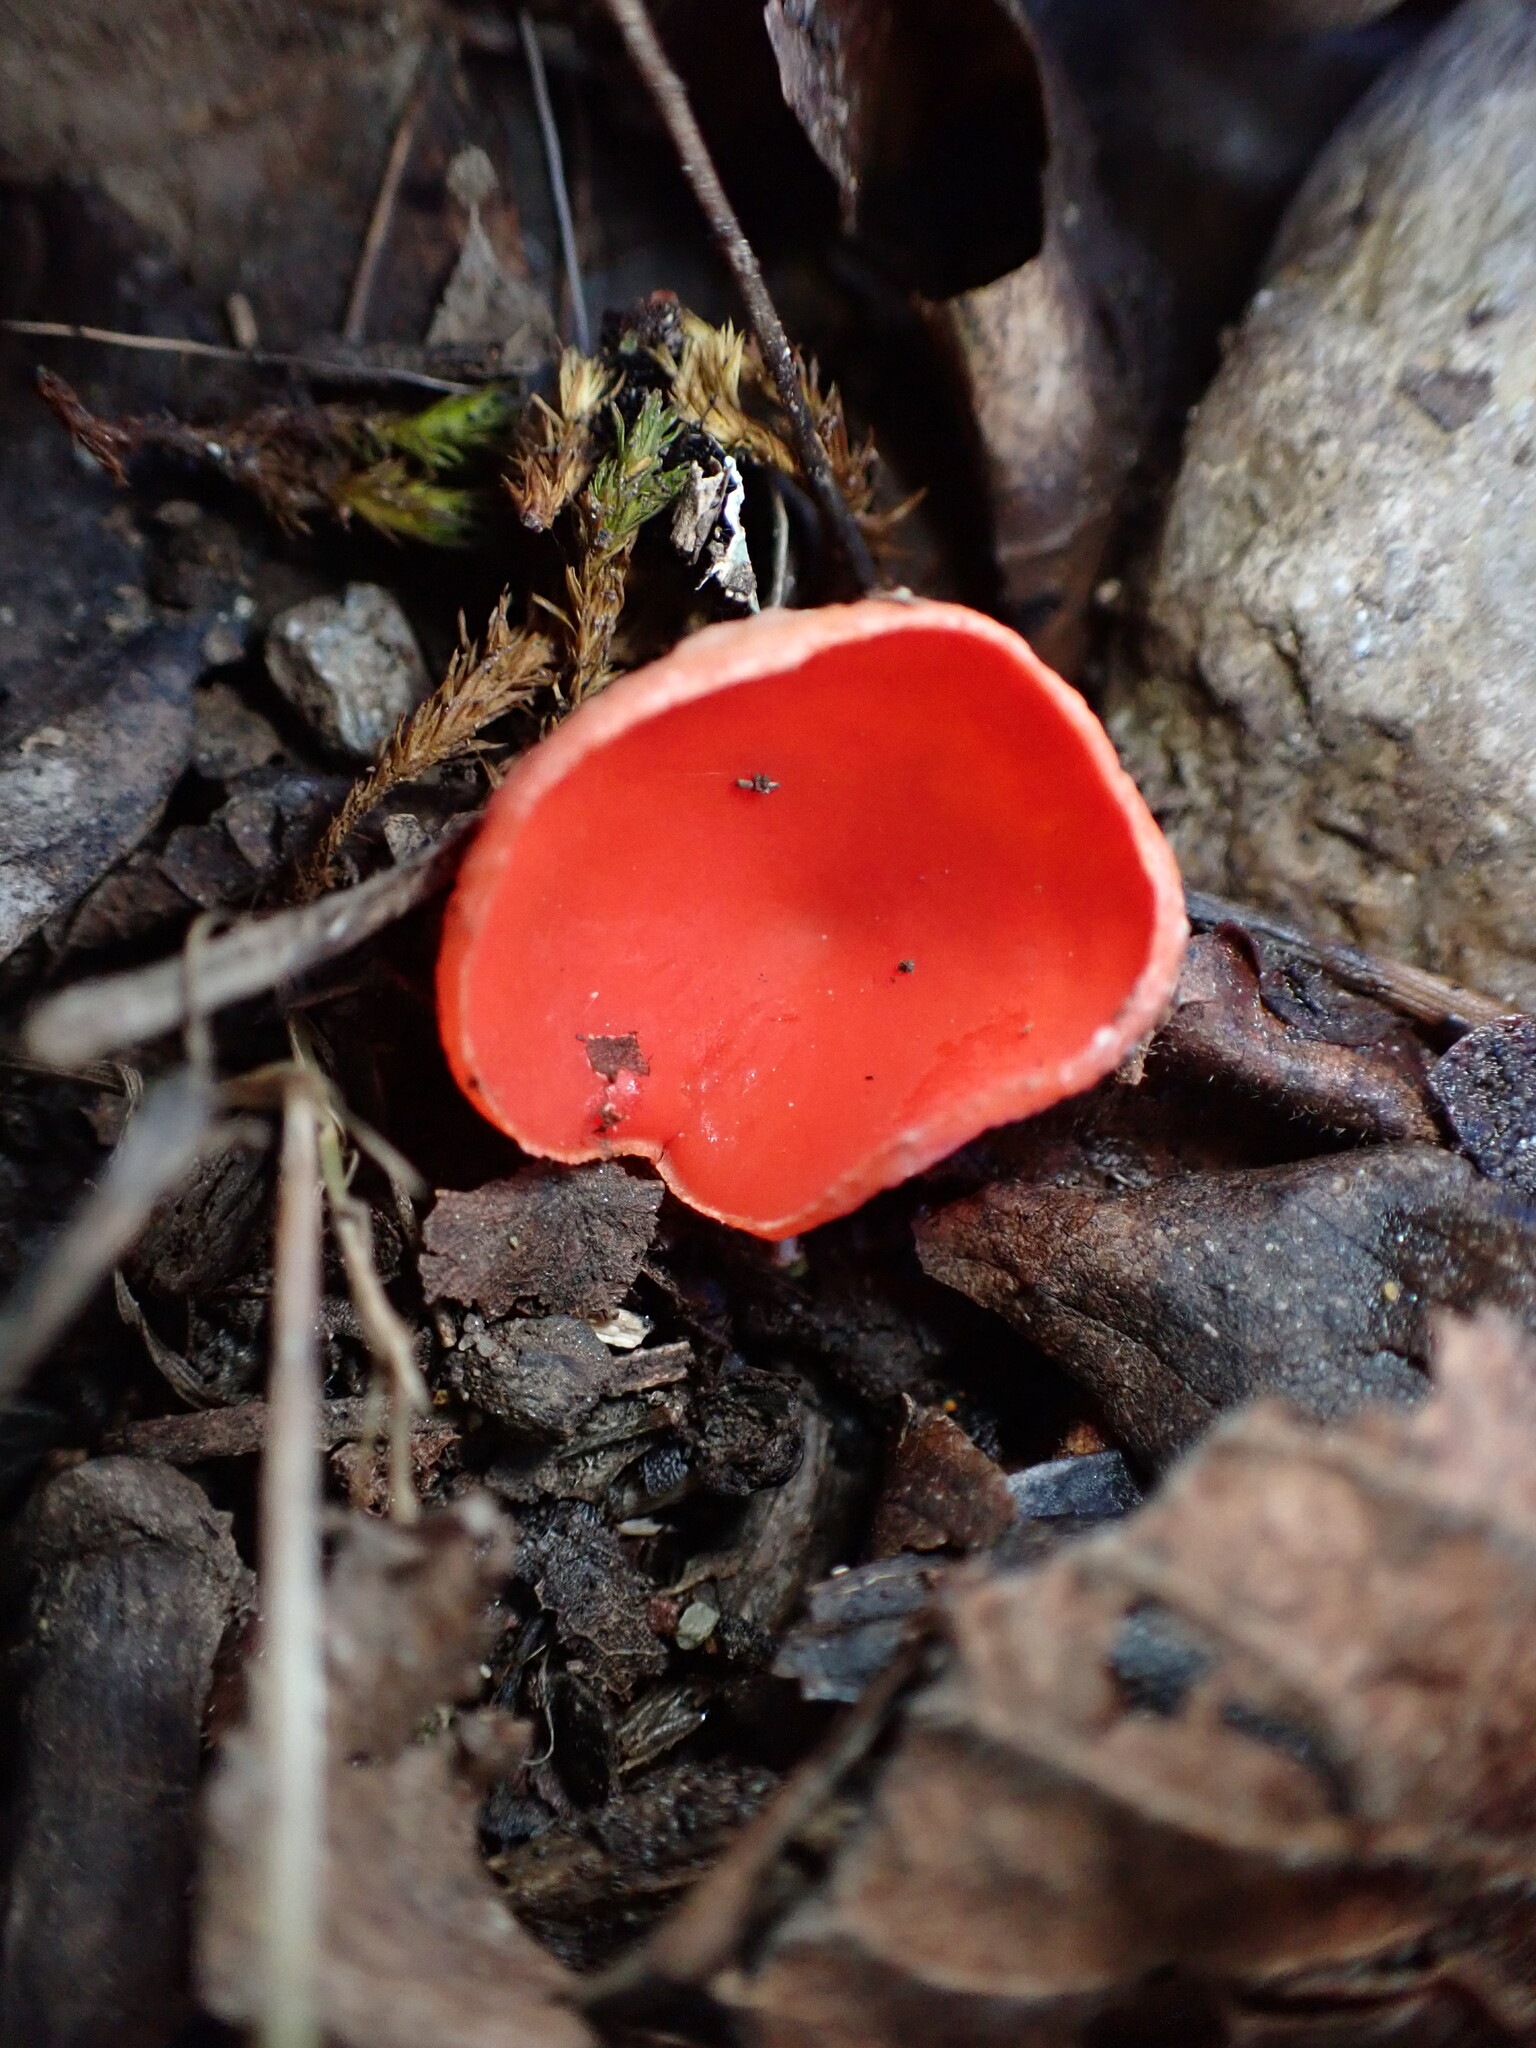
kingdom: Fungi
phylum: Ascomycota
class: Pezizomycetes
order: Pezizales
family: Sarcoscyphaceae
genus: Sarcoscypha
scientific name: Sarcoscypha
